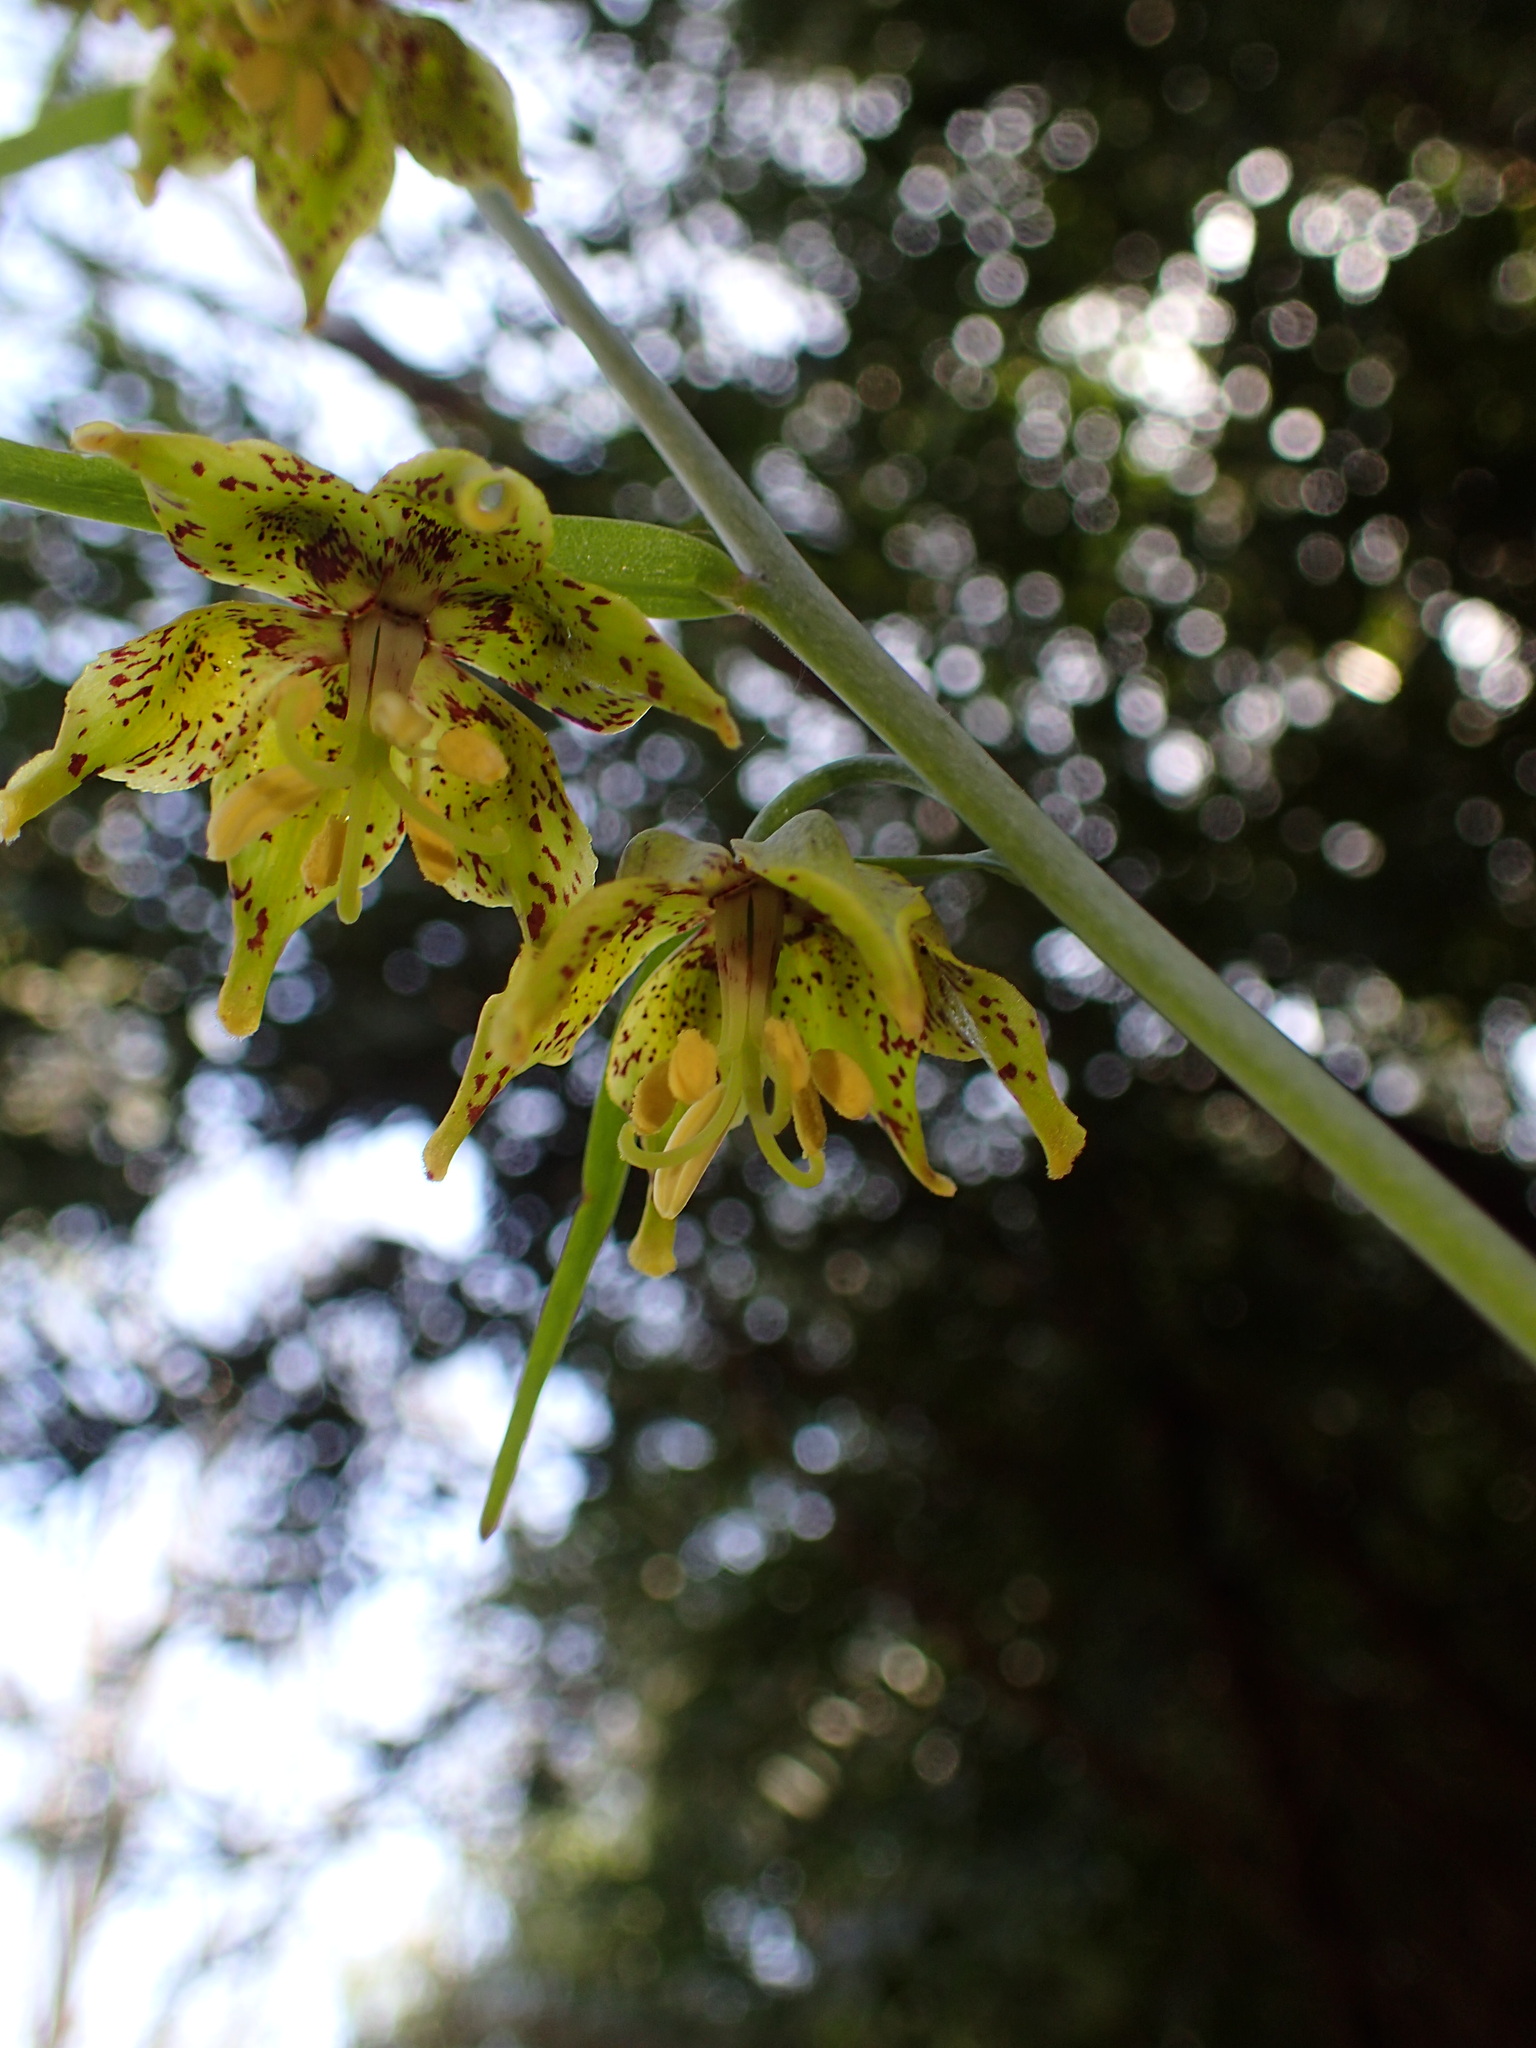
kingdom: Plantae
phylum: Tracheophyta
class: Liliopsida
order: Liliales
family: Liliaceae
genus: Fritillaria
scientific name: Fritillaria ojaiensis
